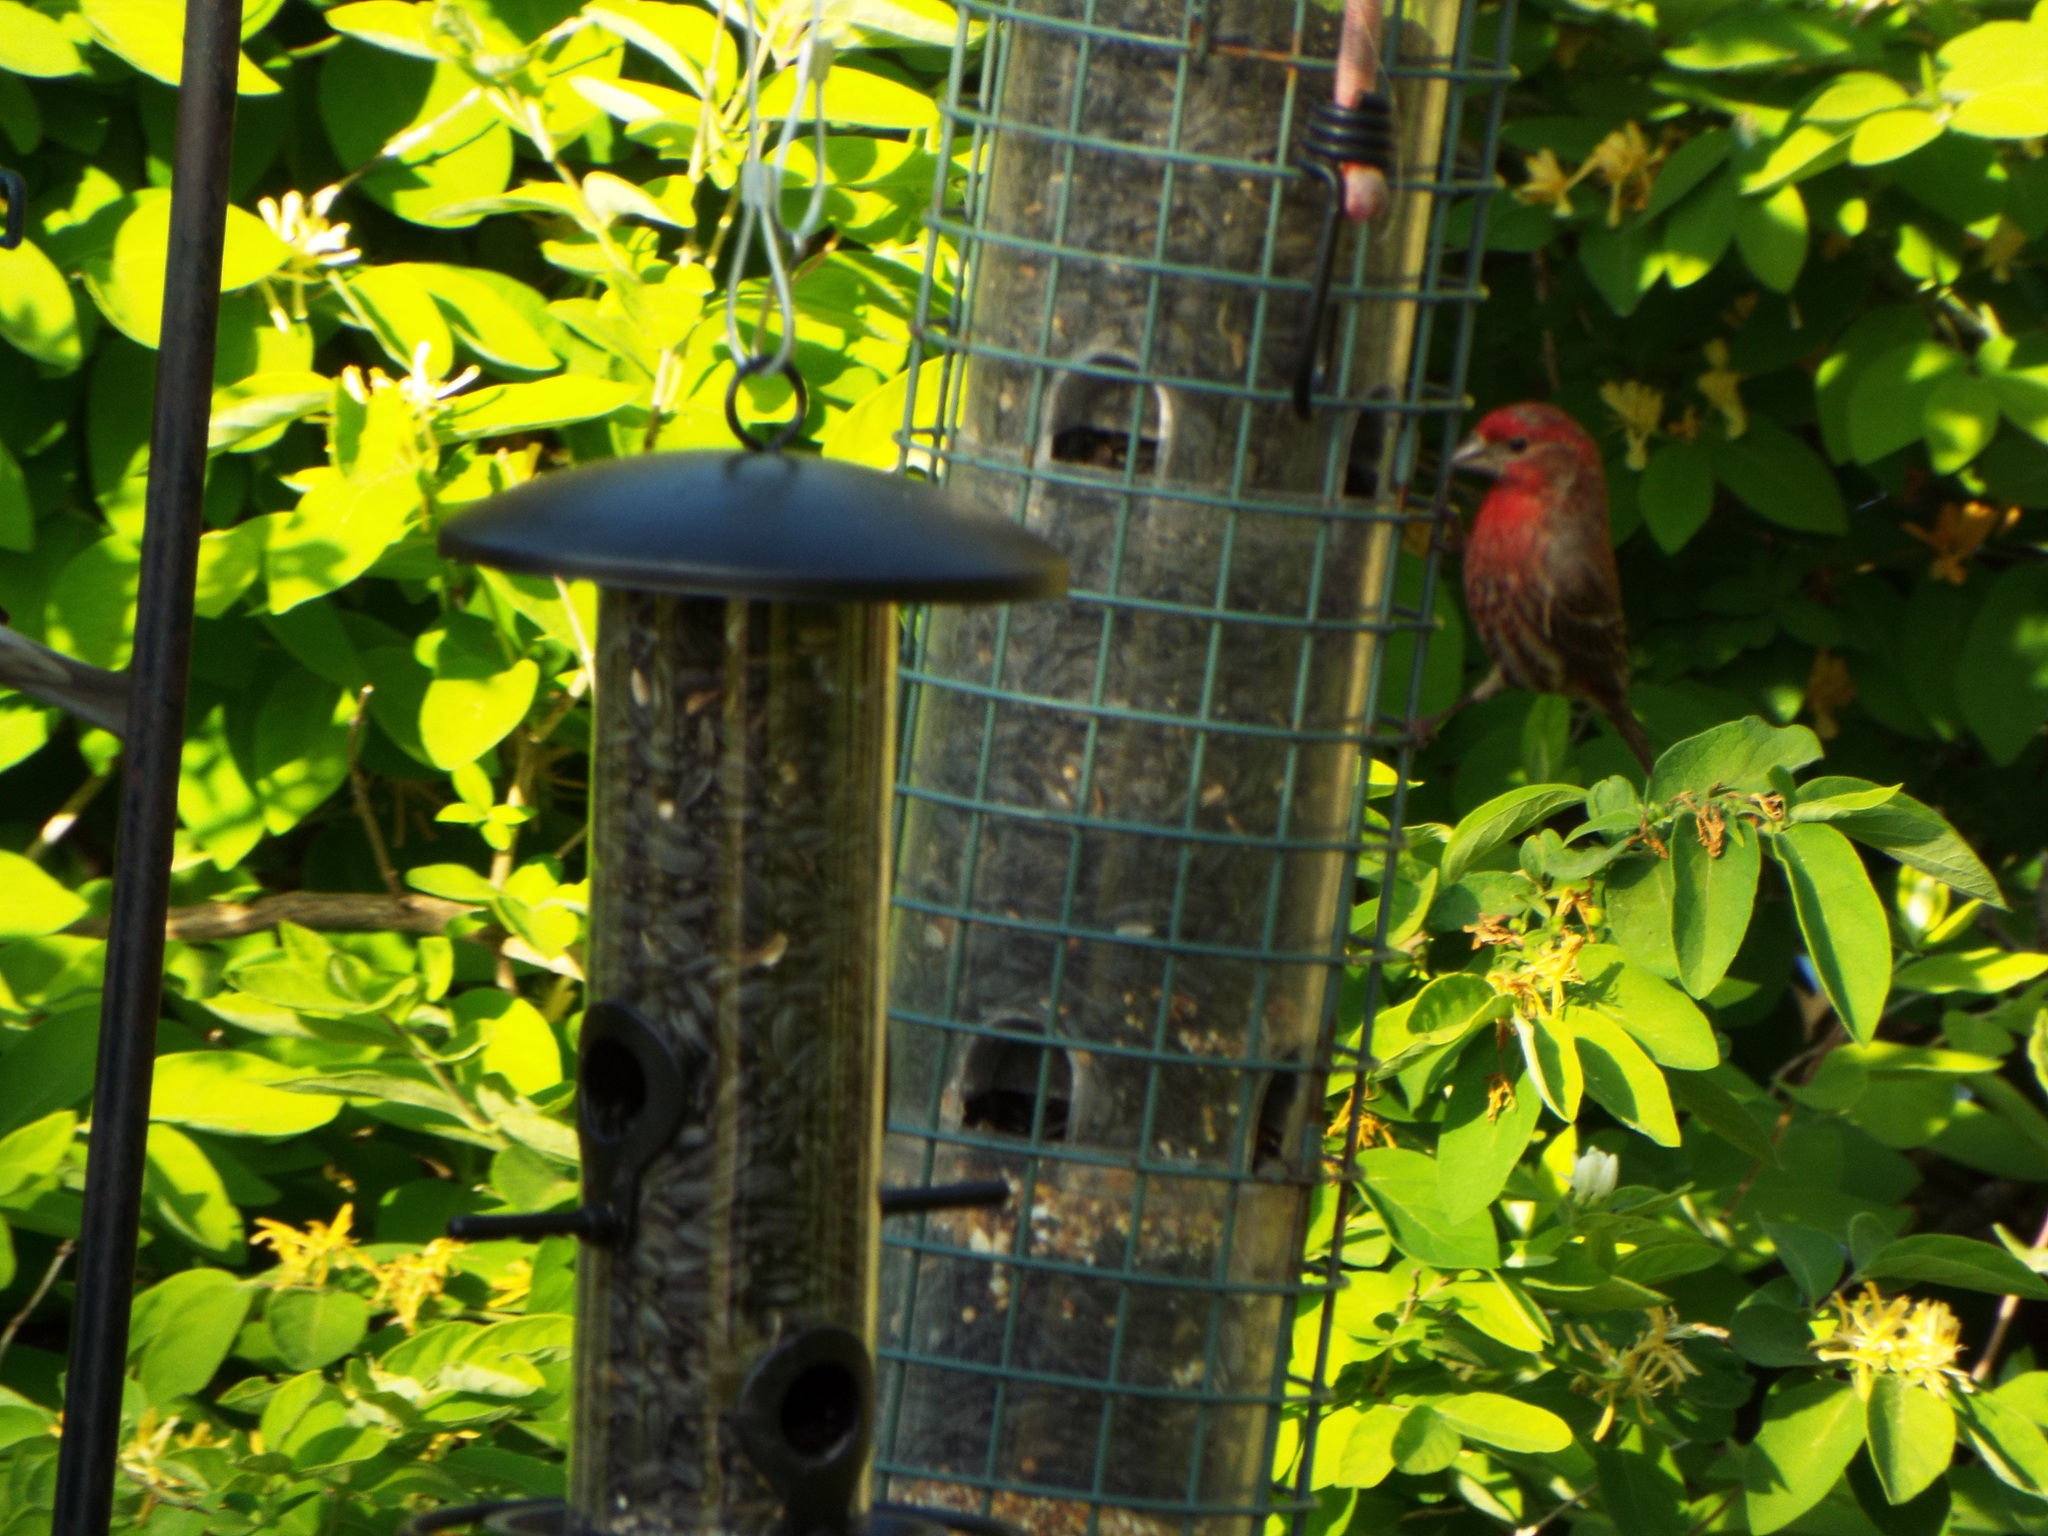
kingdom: Animalia
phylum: Chordata
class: Aves
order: Passeriformes
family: Fringillidae
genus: Haemorhous
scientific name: Haemorhous mexicanus
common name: House finch
